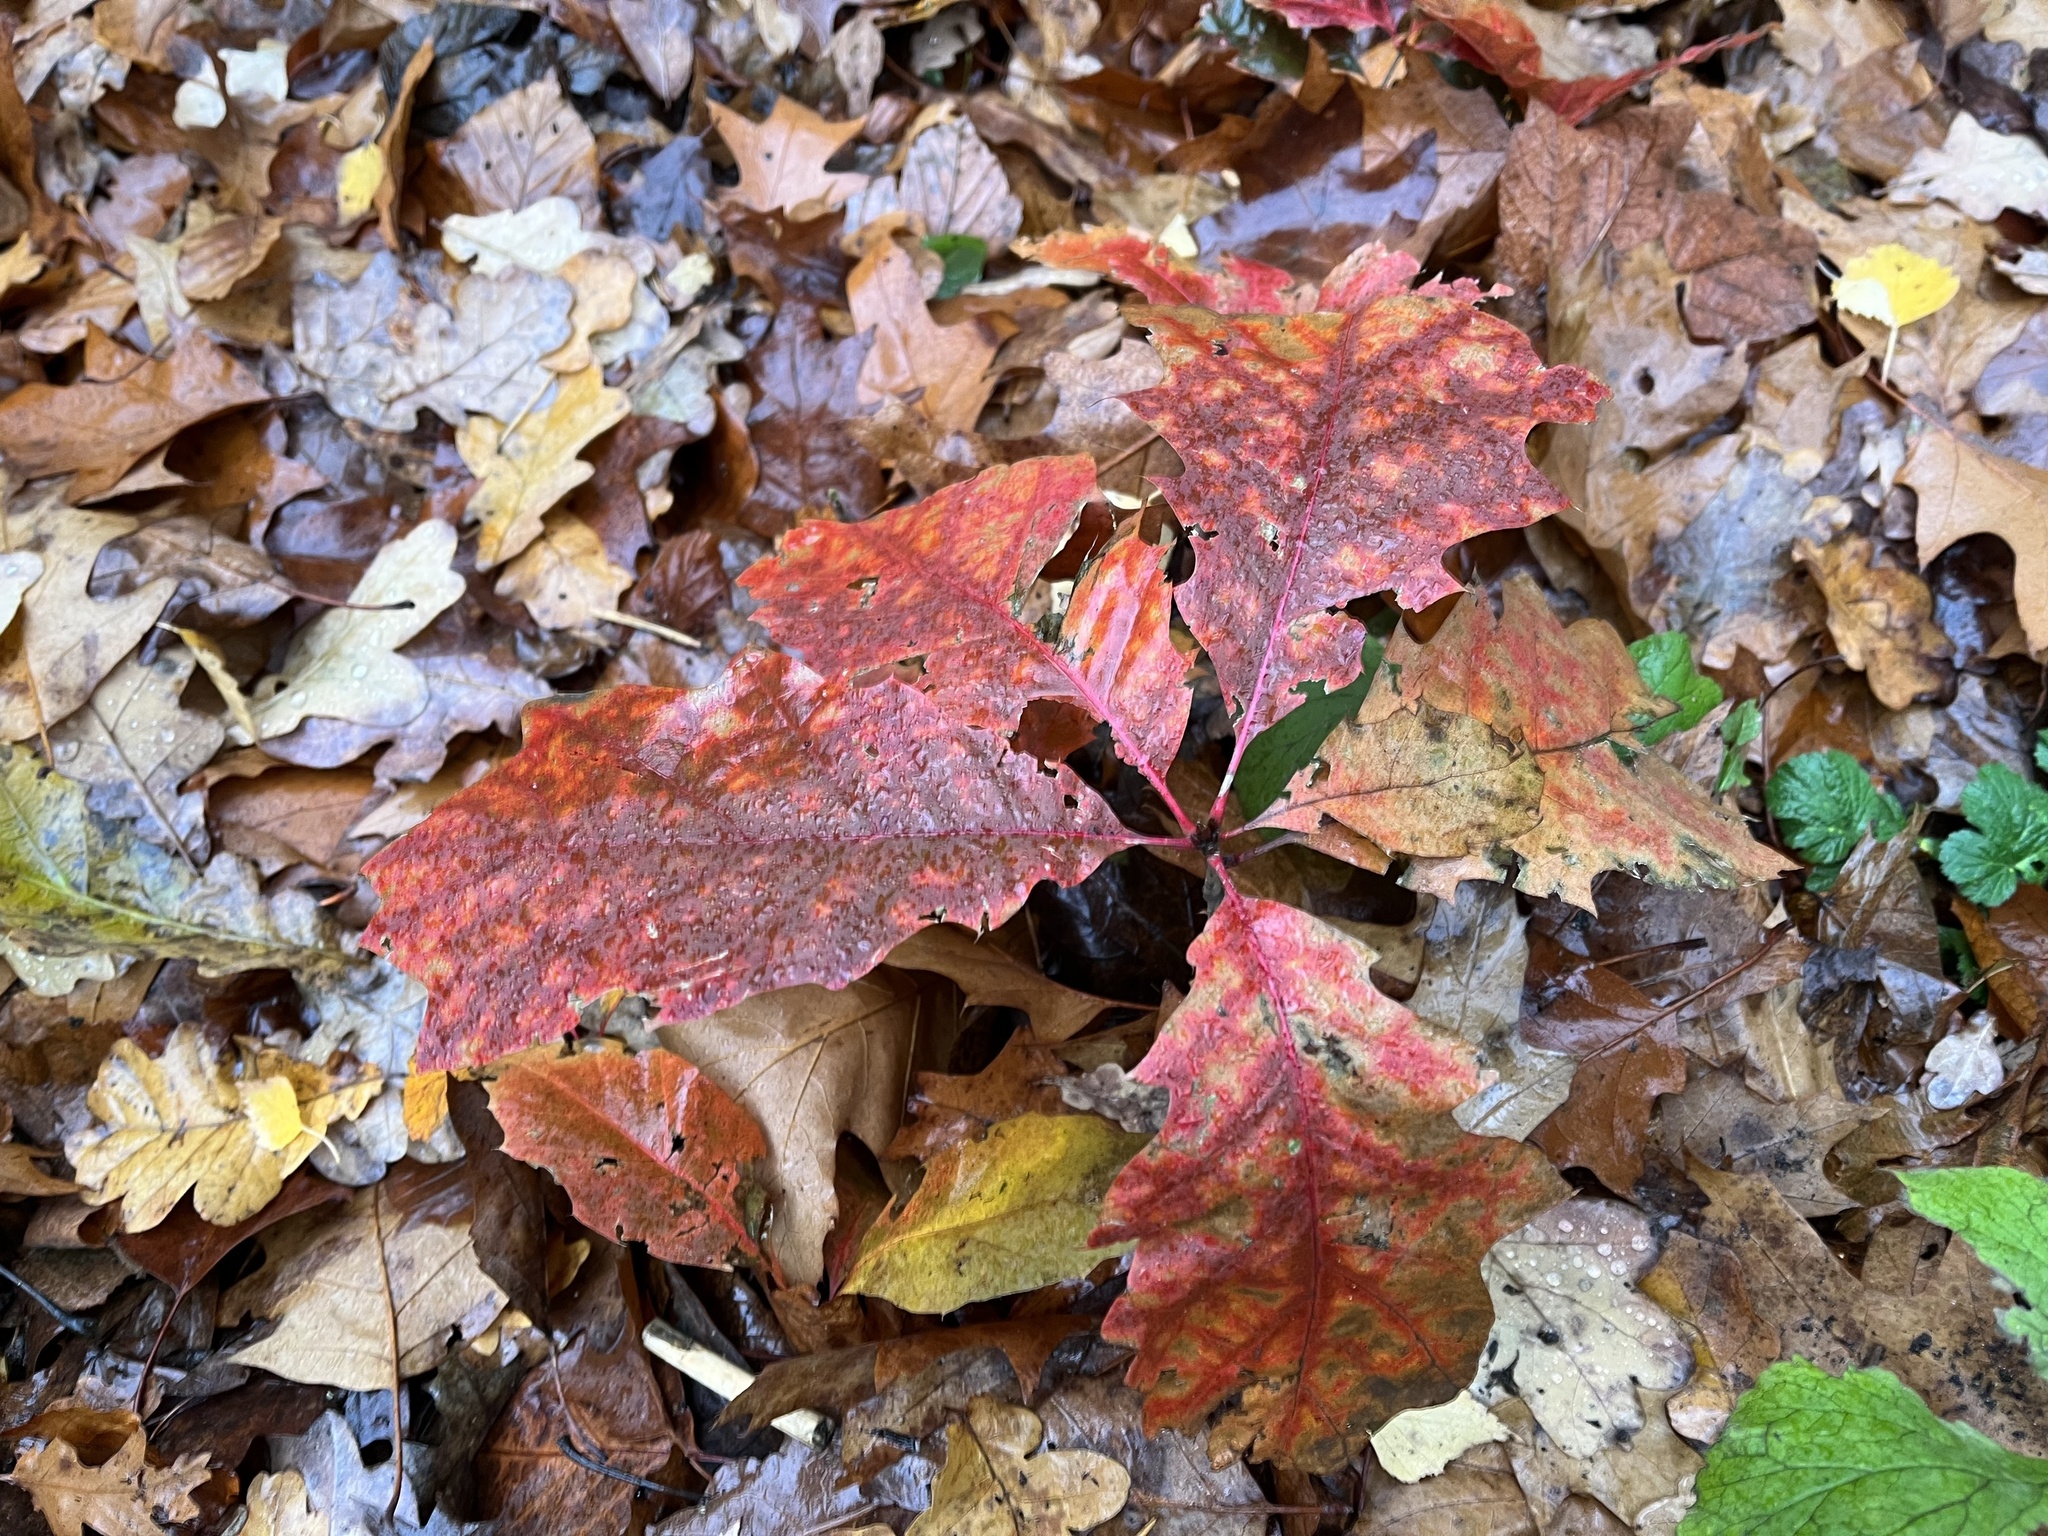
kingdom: Plantae
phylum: Tracheophyta
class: Magnoliopsida
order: Fagales
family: Fagaceae
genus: Quercus
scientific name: Quercus rubra
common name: Red oak
